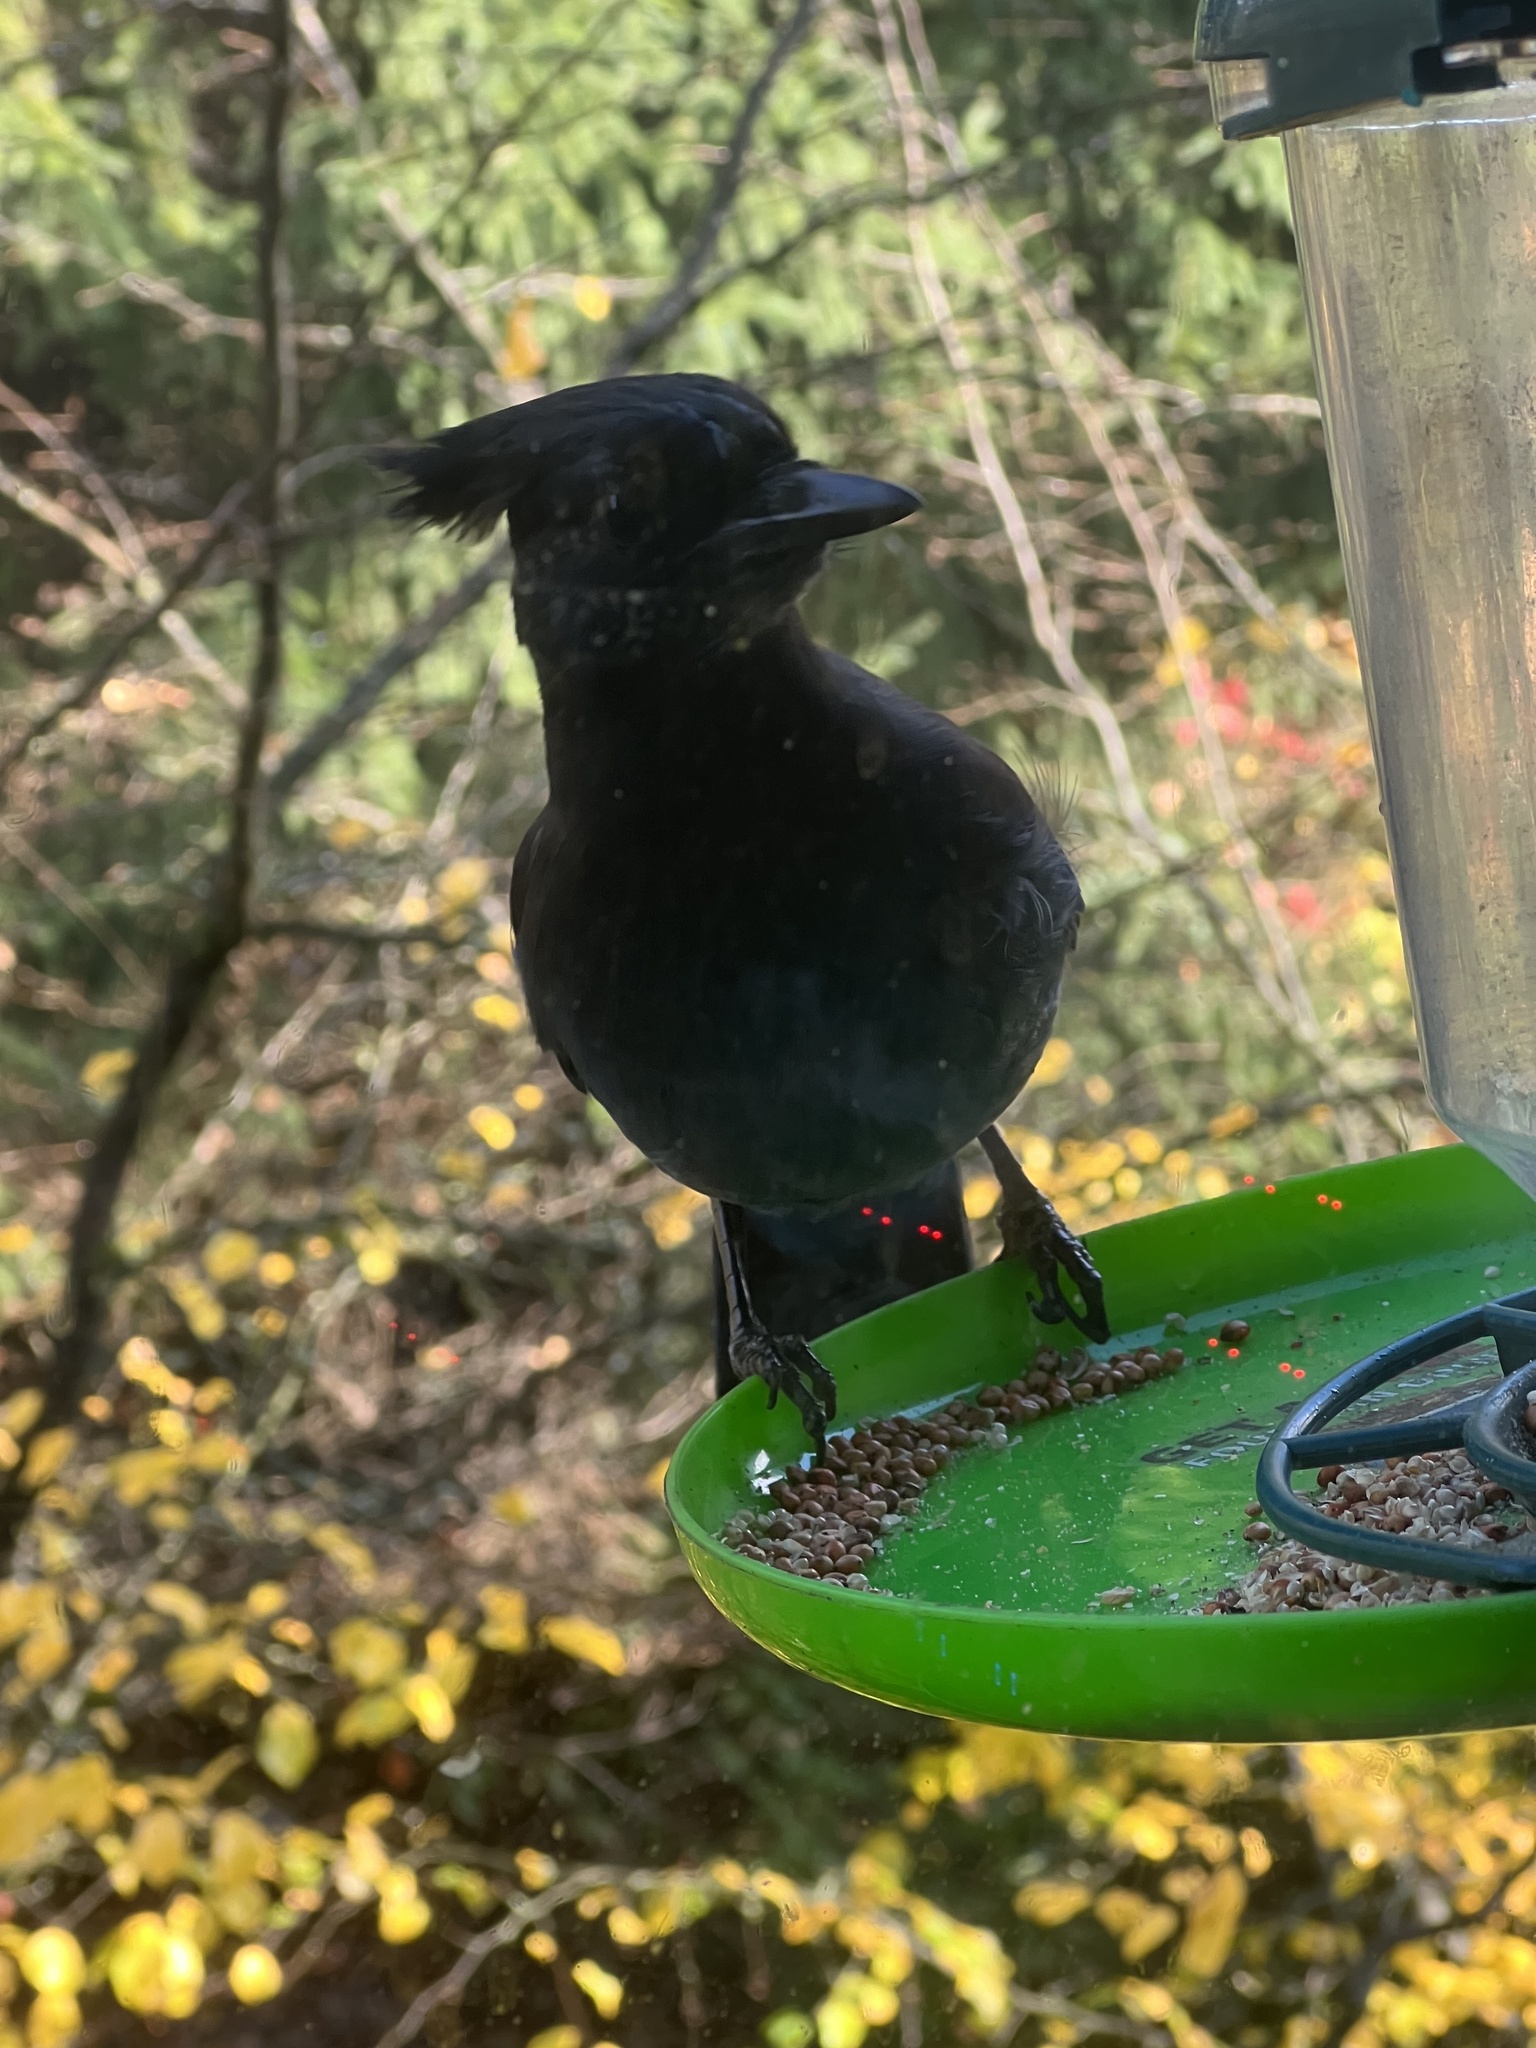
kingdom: Animalia
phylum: Chordata
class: Aves
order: Passeriformes
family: Corvidae
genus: Cyanocitta
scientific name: Cyanocitta stelleri
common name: Steller's jay
